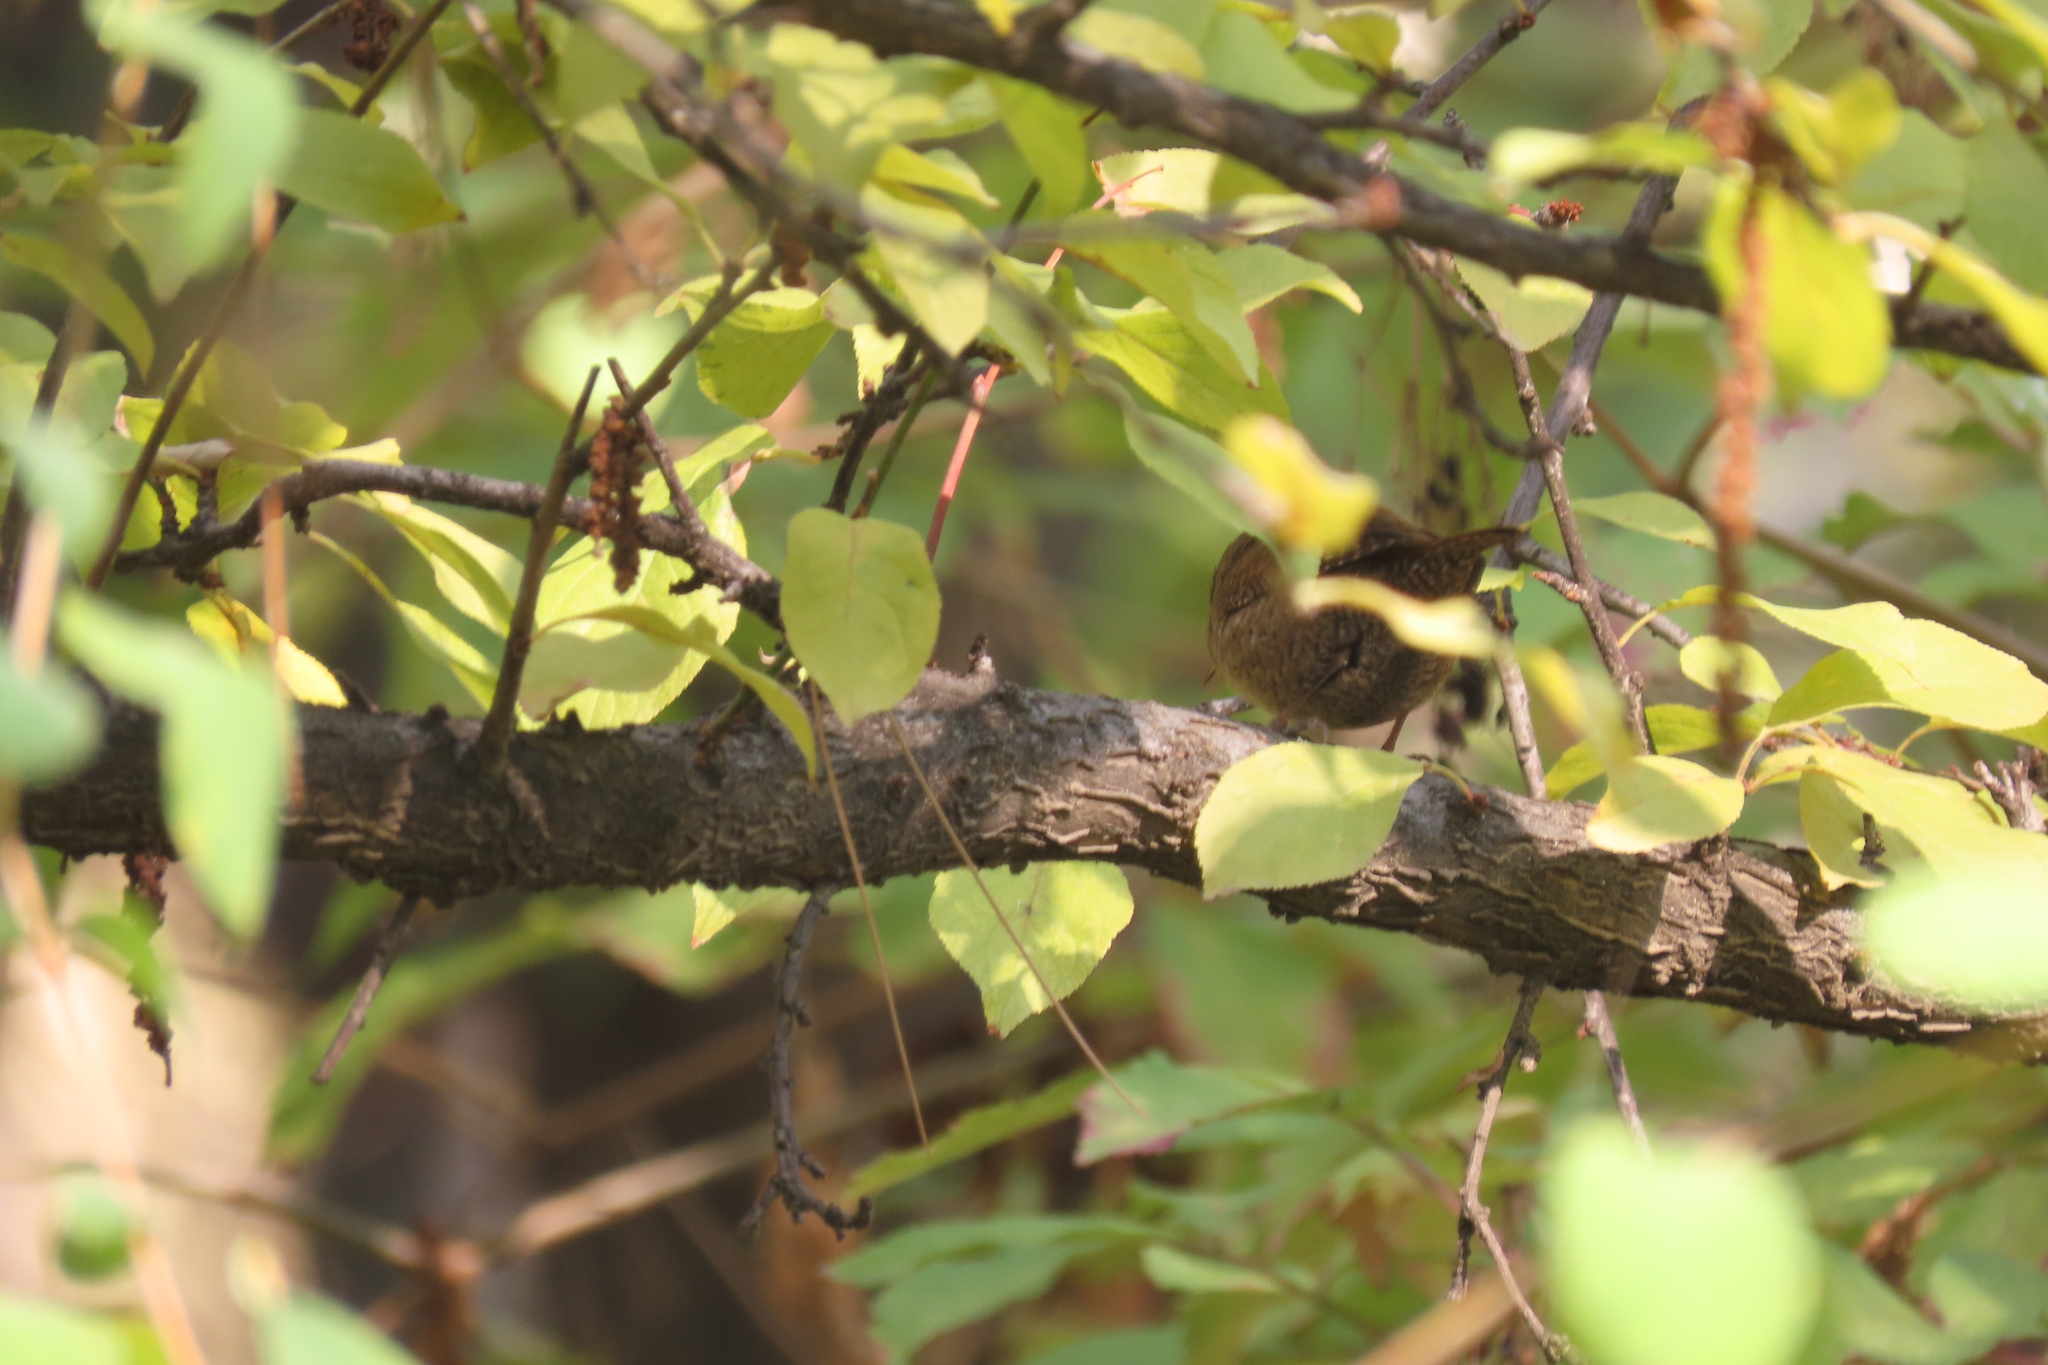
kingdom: Animalia
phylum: Chordata
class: Aves
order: Passeriformes
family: Troglodytidae
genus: Troglodytes
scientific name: Troglodytes troglodytes
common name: Eurasian wren
